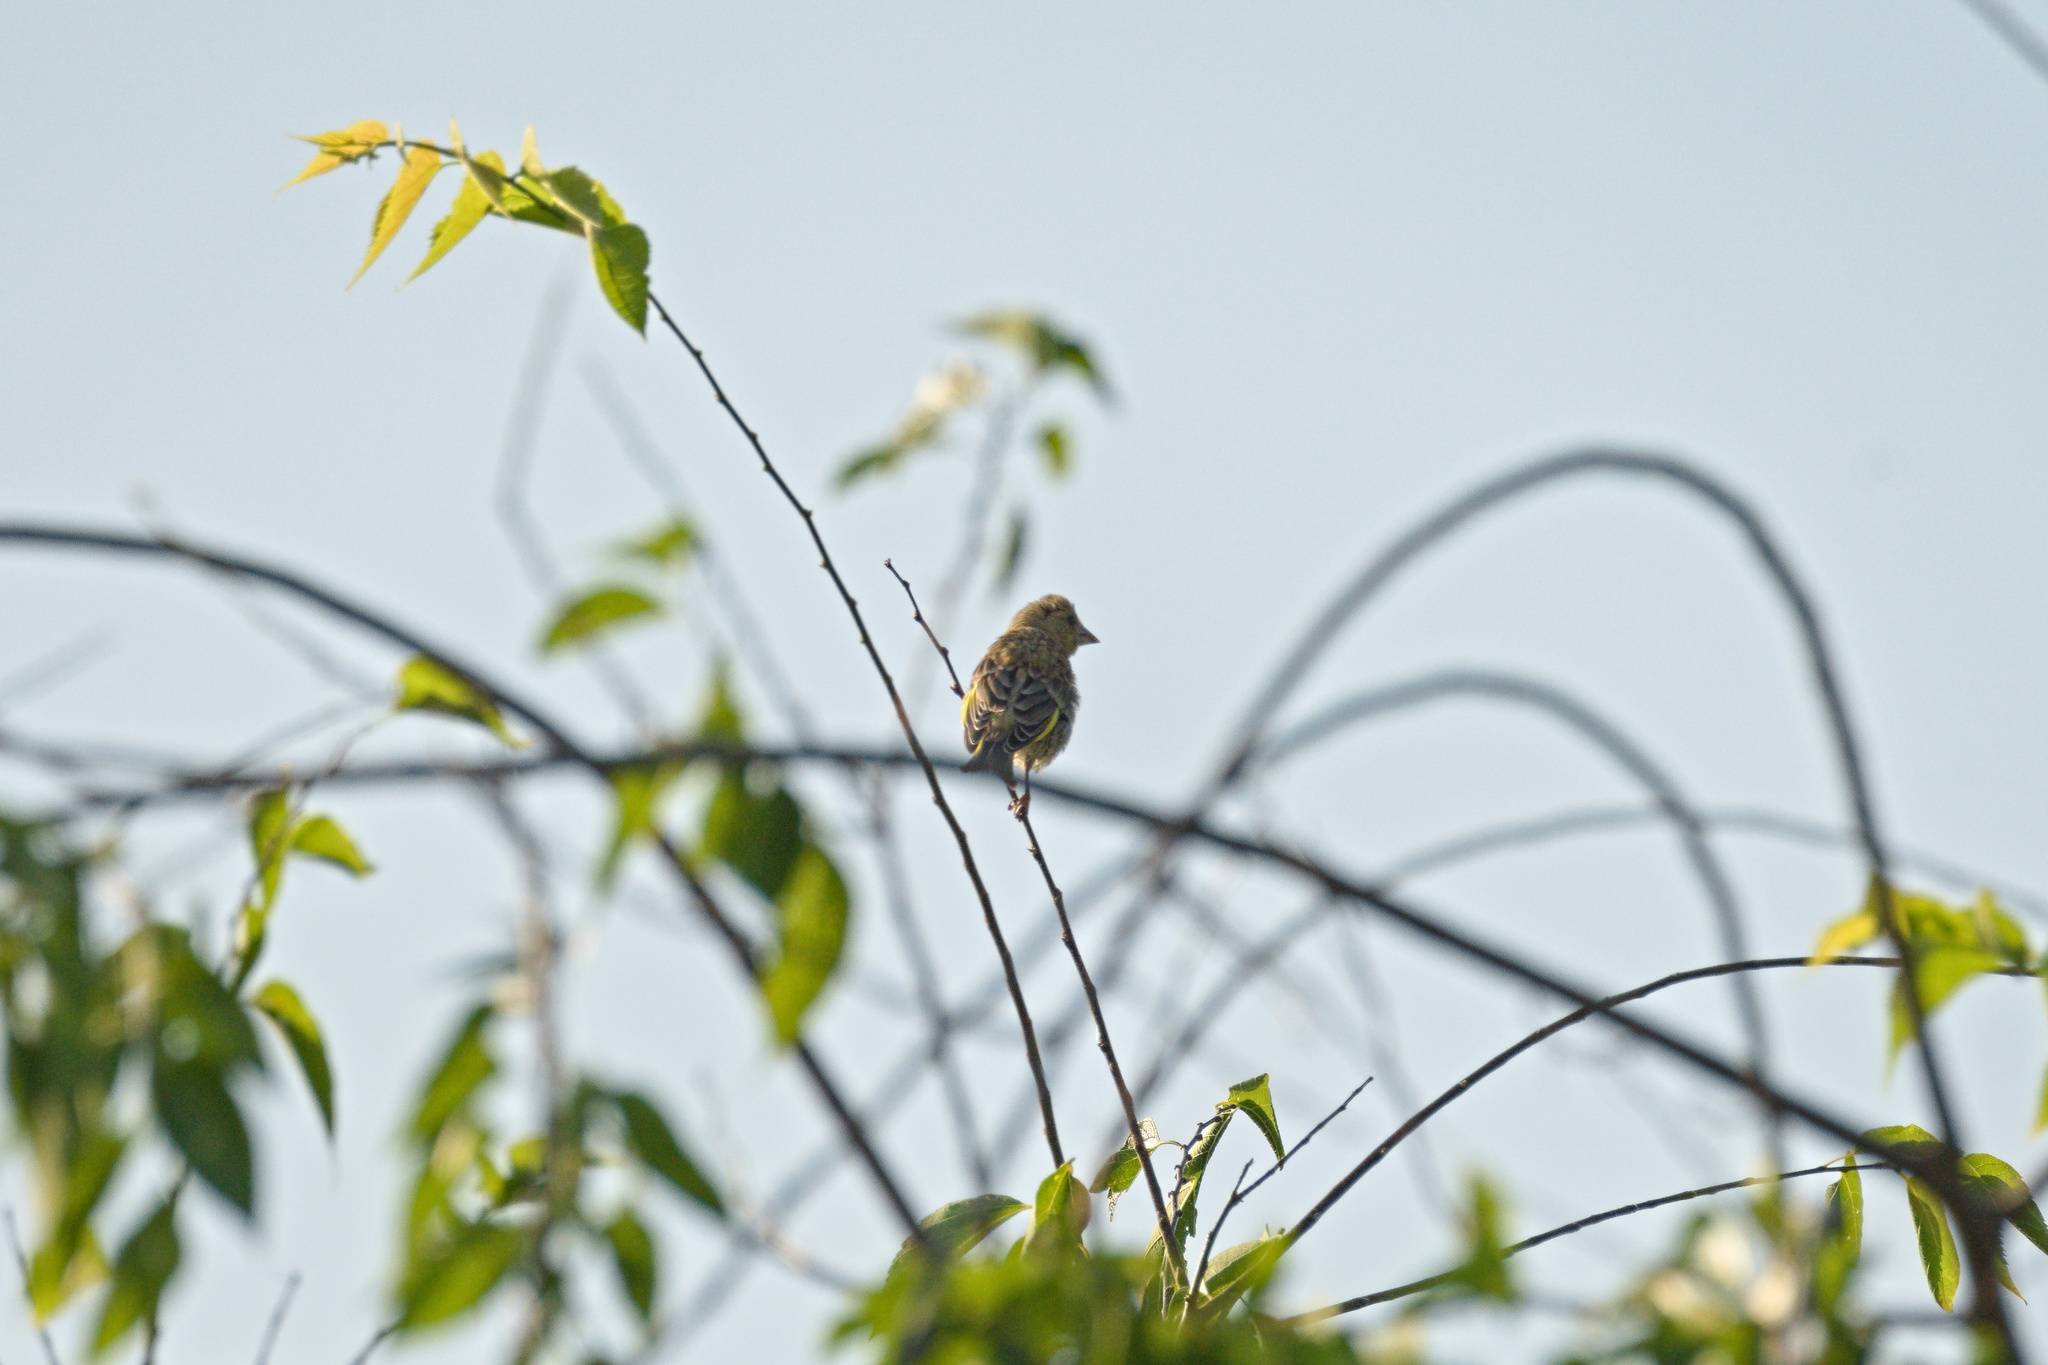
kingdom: Plantae
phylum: Tracheophyta
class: Liliopsida
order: Poales
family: Poaceae
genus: Chloris
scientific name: Chloris chloris
